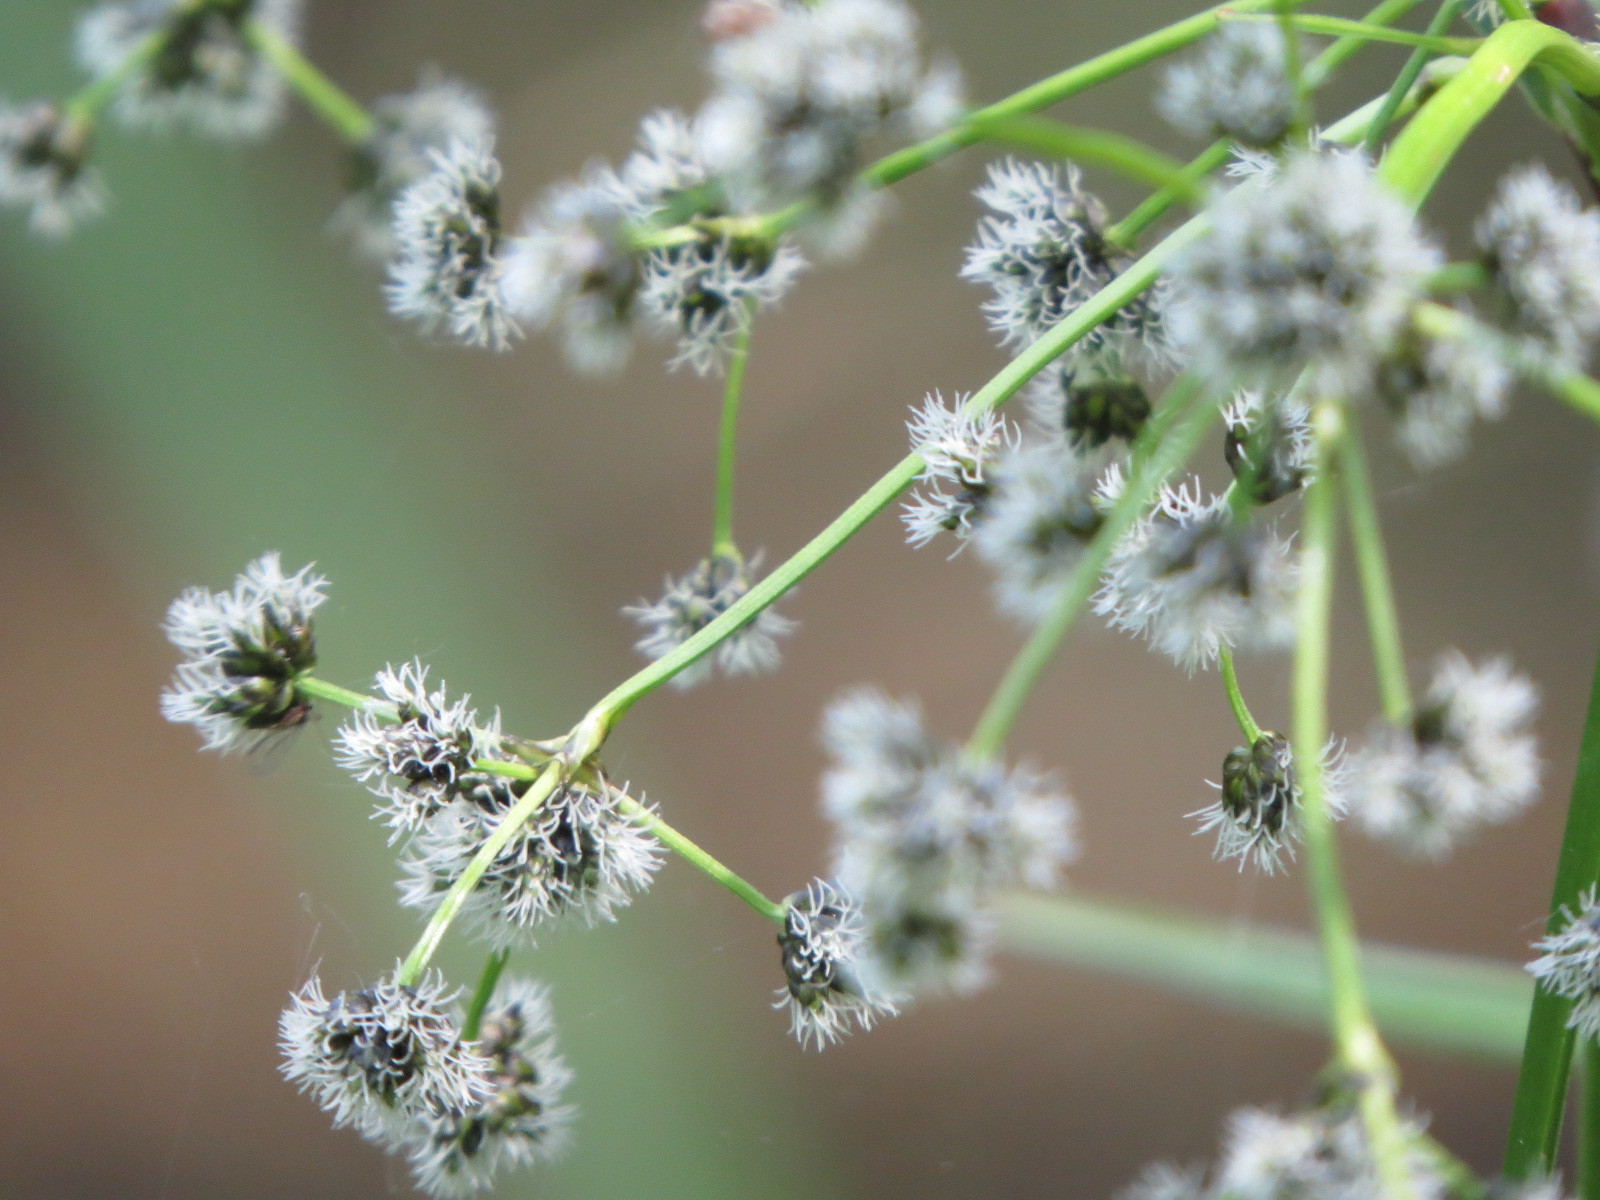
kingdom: Plantae
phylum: Tracheophyta
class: Liliopsida
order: Poales
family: Cyperaceae
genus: Scirpus
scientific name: Scirpus microcarpus
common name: Panicled bulrush
